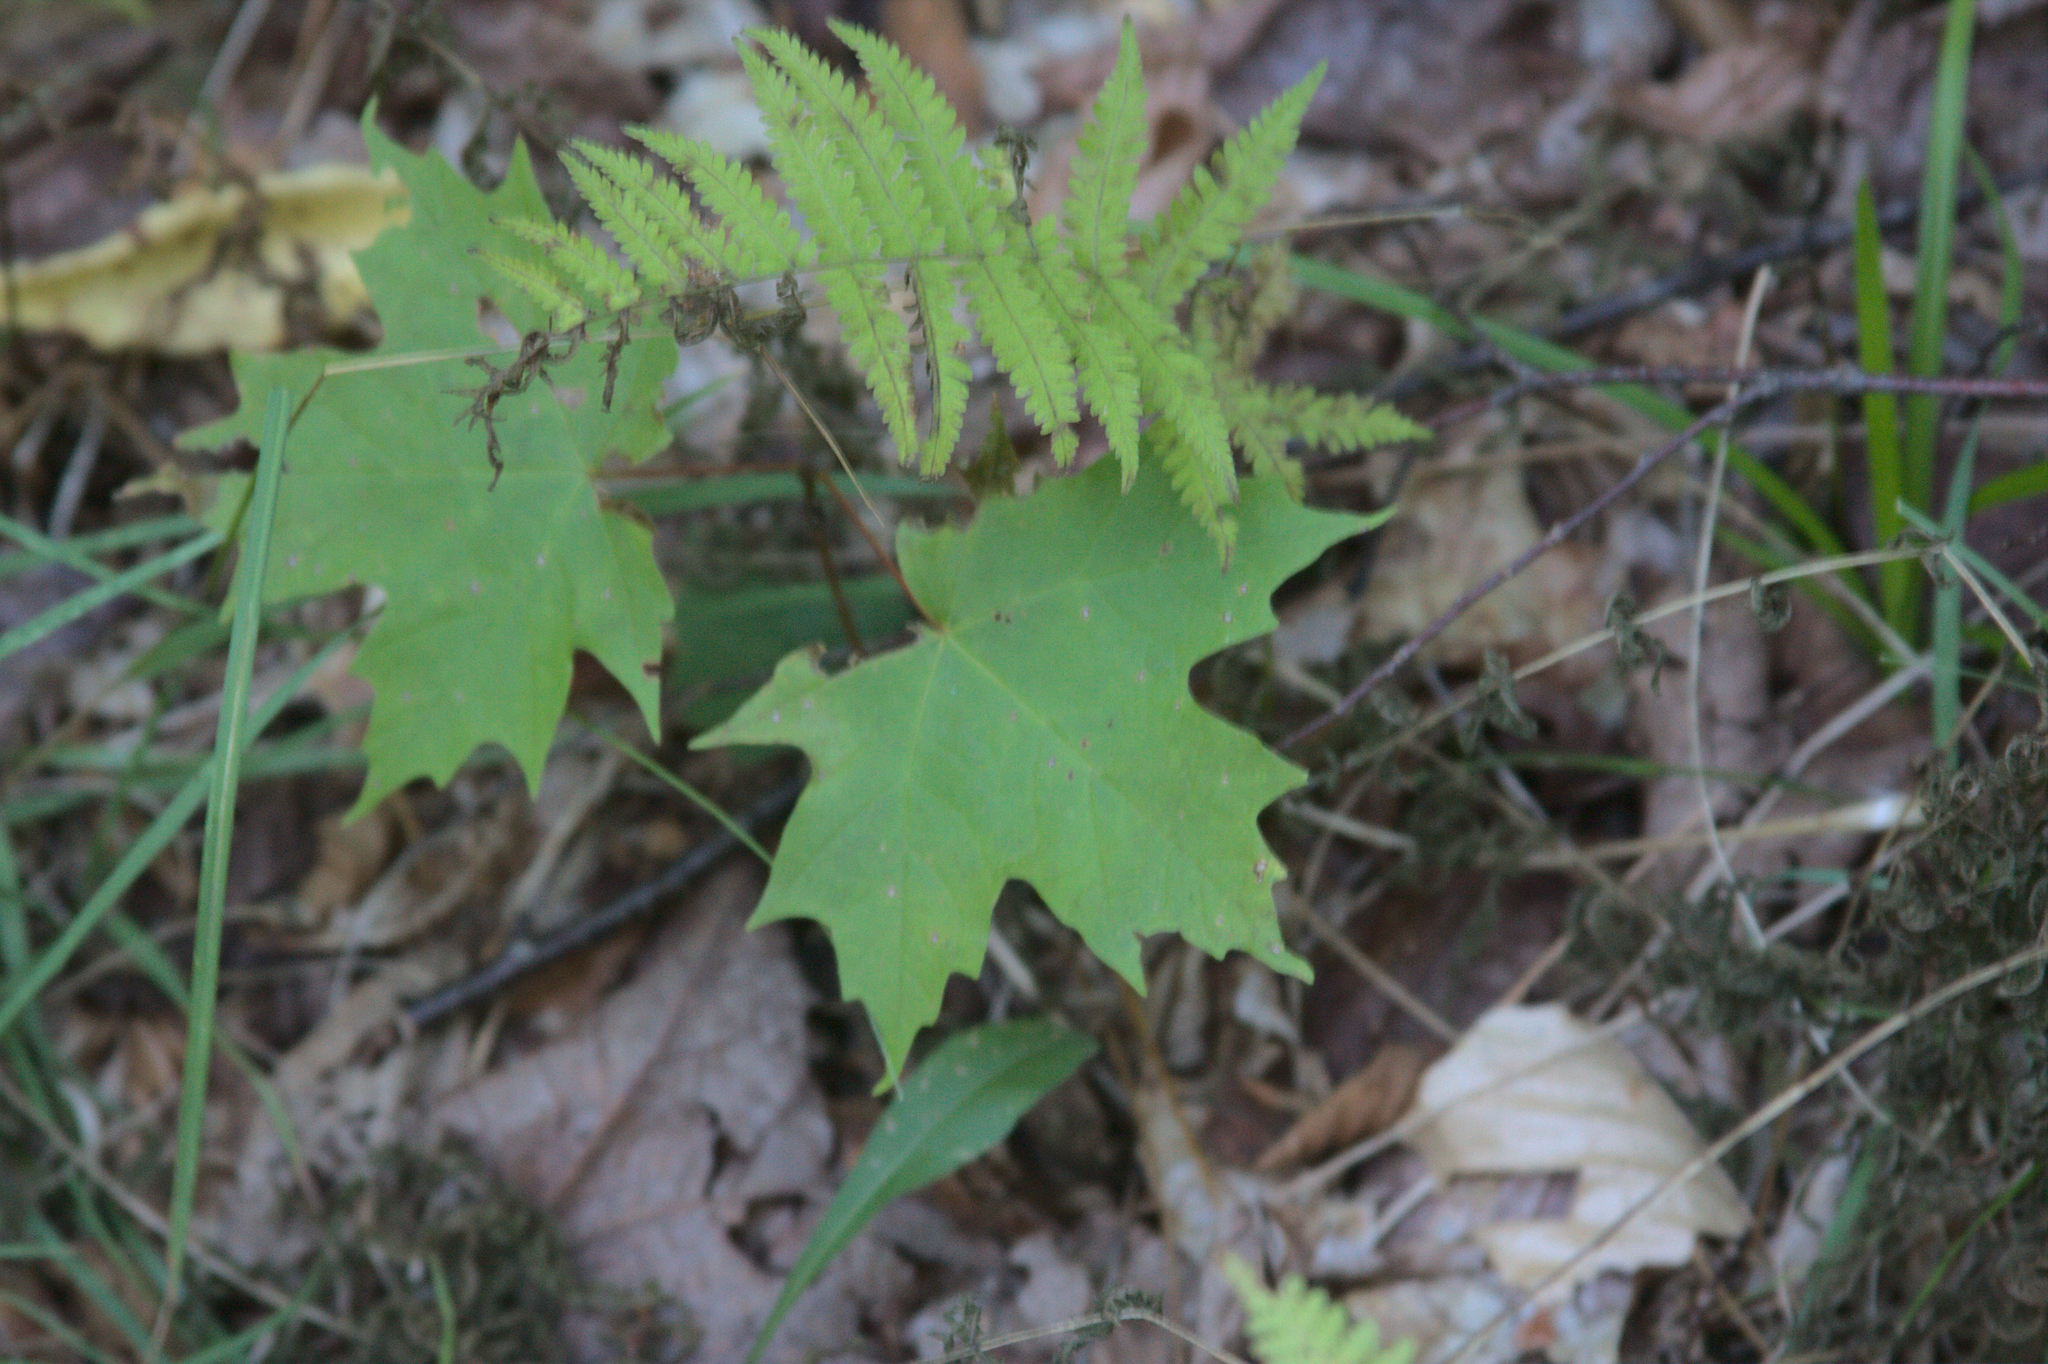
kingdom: Plantae
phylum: Tracheophyta
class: Magnoliopsida
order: Sapindales
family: Sapindaceae
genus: Acer
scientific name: Acer saccharum
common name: Sugar maple
